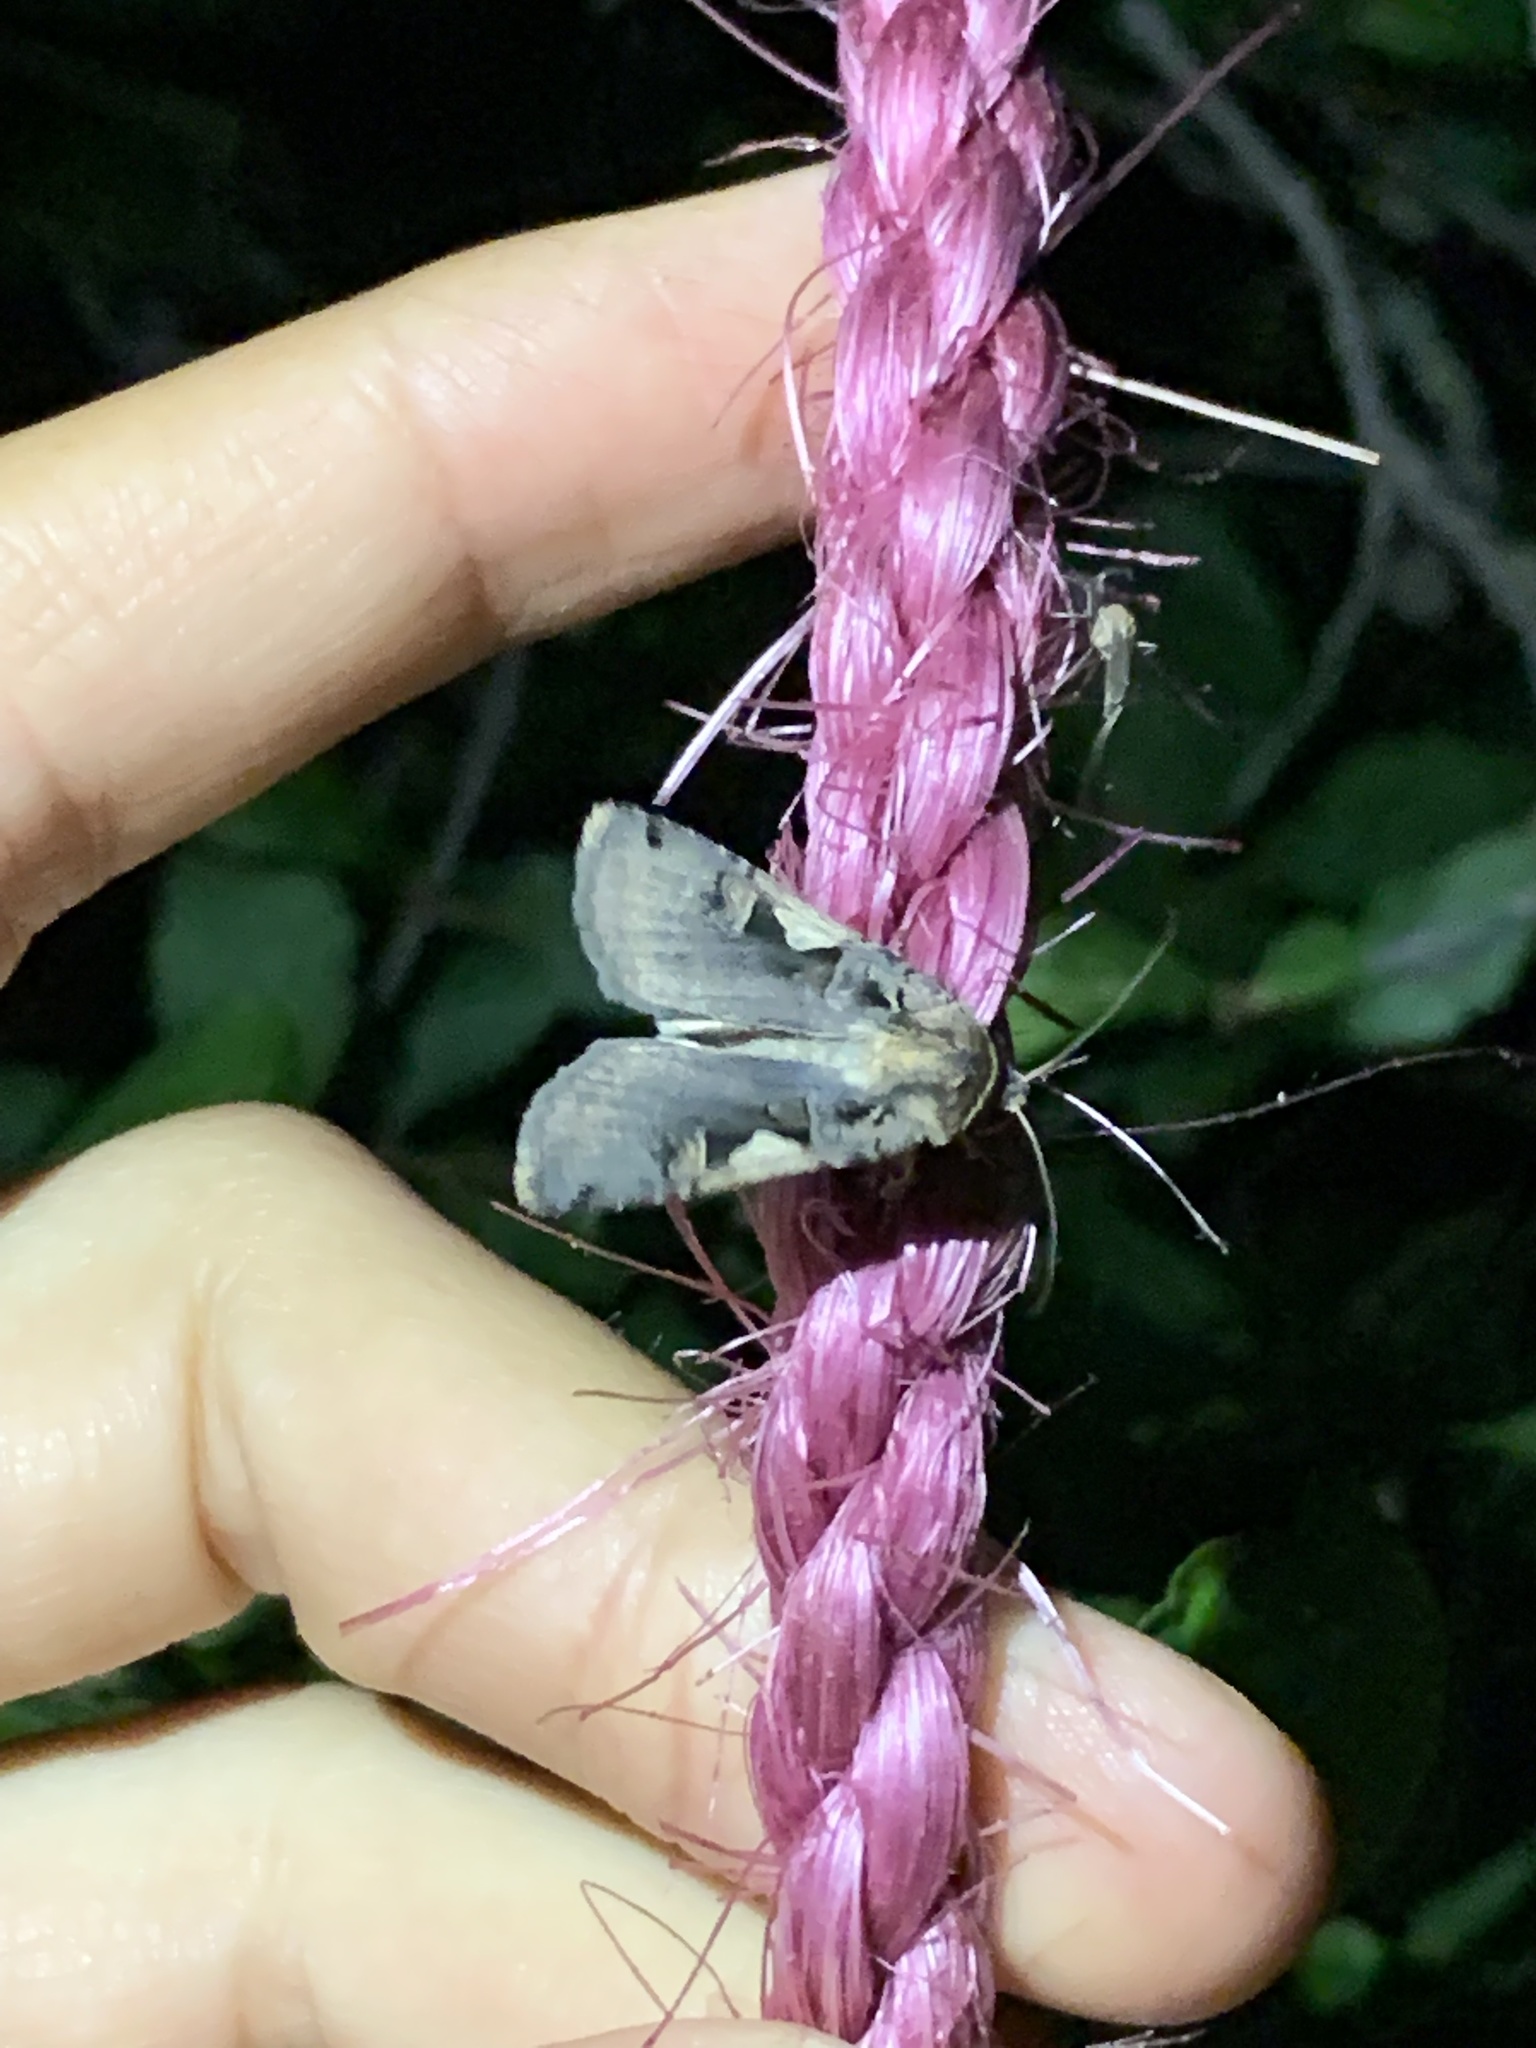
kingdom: Animalia
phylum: Arthropoda
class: Insecta
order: Lepidoptera
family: Noctuidae
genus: Xestia
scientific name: Xestia c-nigrum
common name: Setaceous hebrew character
